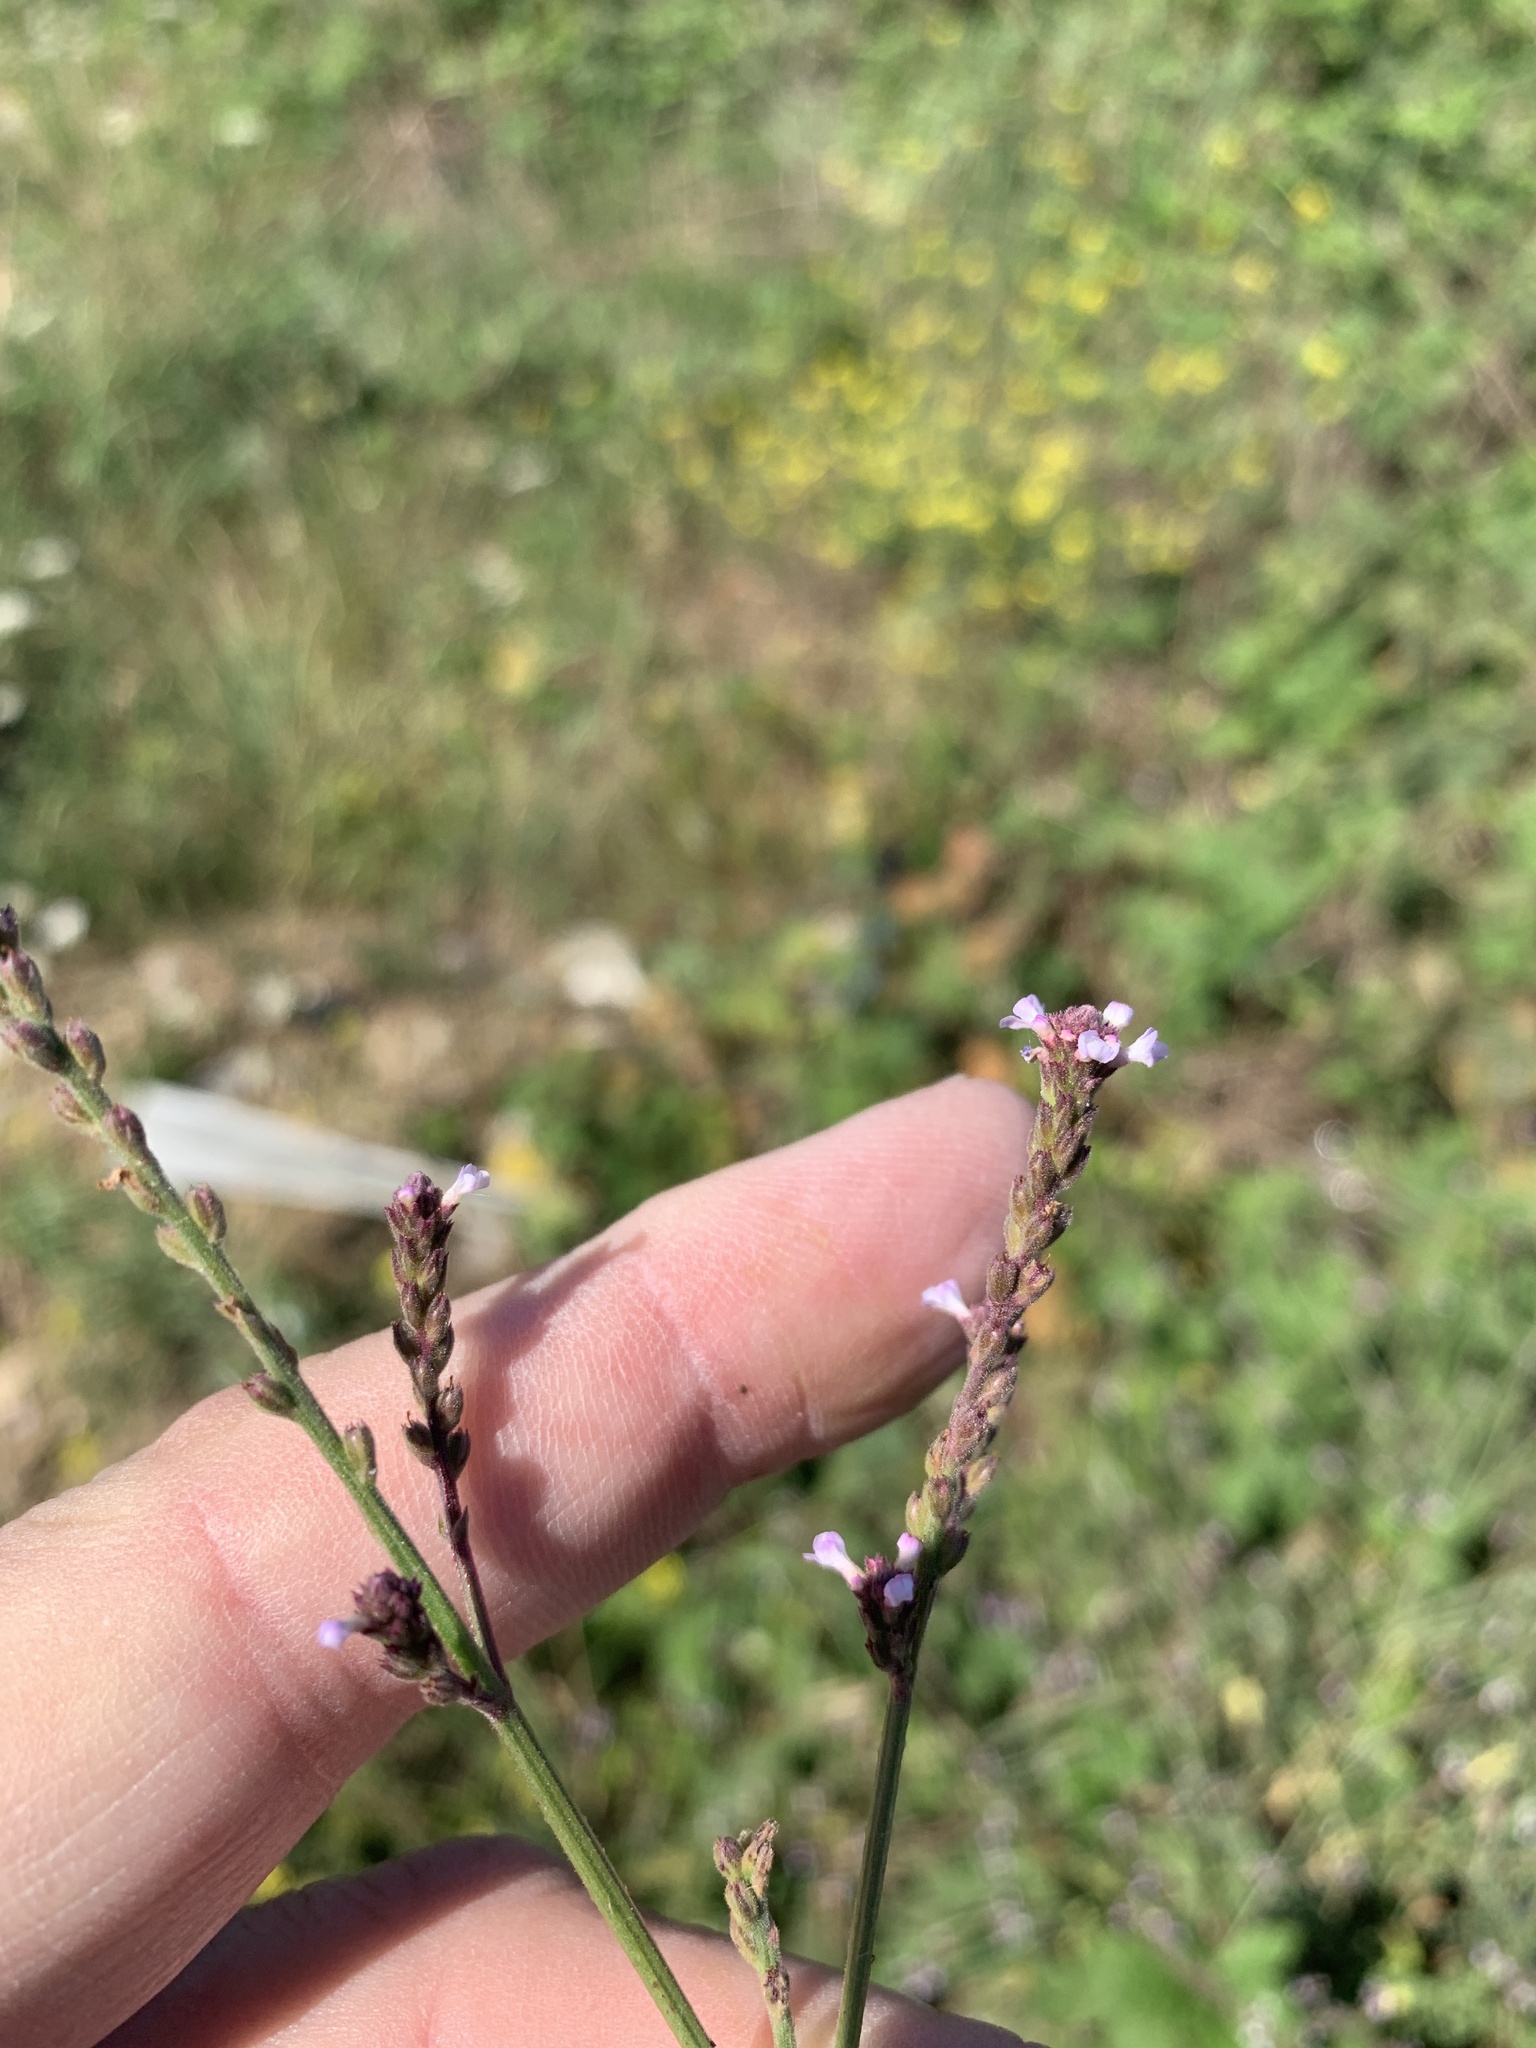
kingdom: Plantae
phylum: Tracheophyta
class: Magnoliopsida
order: Lamiales
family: Verbenaceae
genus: Verbena
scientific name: Verbena officinalis
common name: Vervain
